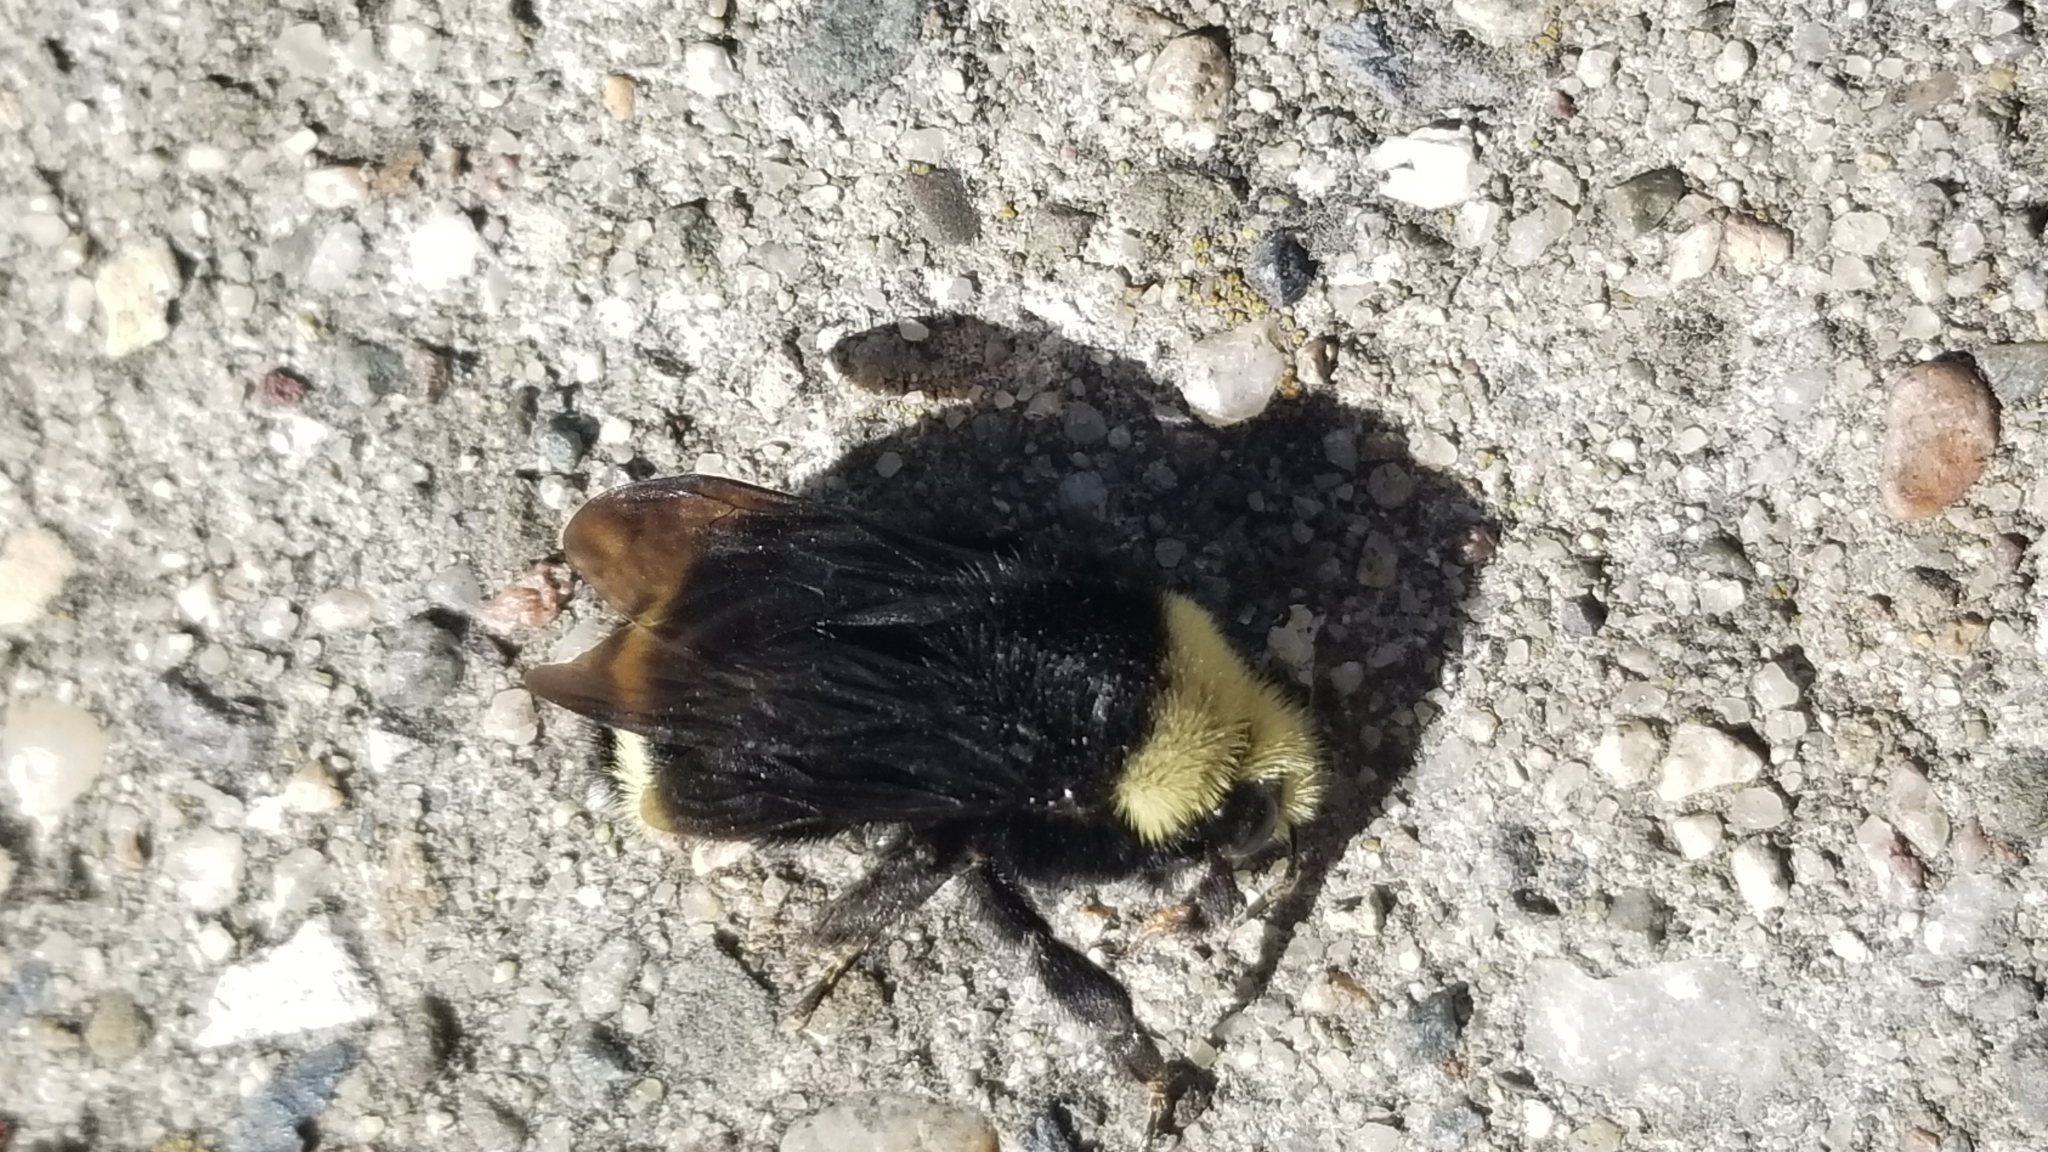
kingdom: Animalia
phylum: Arthropoda
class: Insecta
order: Hymenoptera
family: Apidae
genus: Bombus
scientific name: Bombus vosnesenskii
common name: Vosnesensky bumble bee
